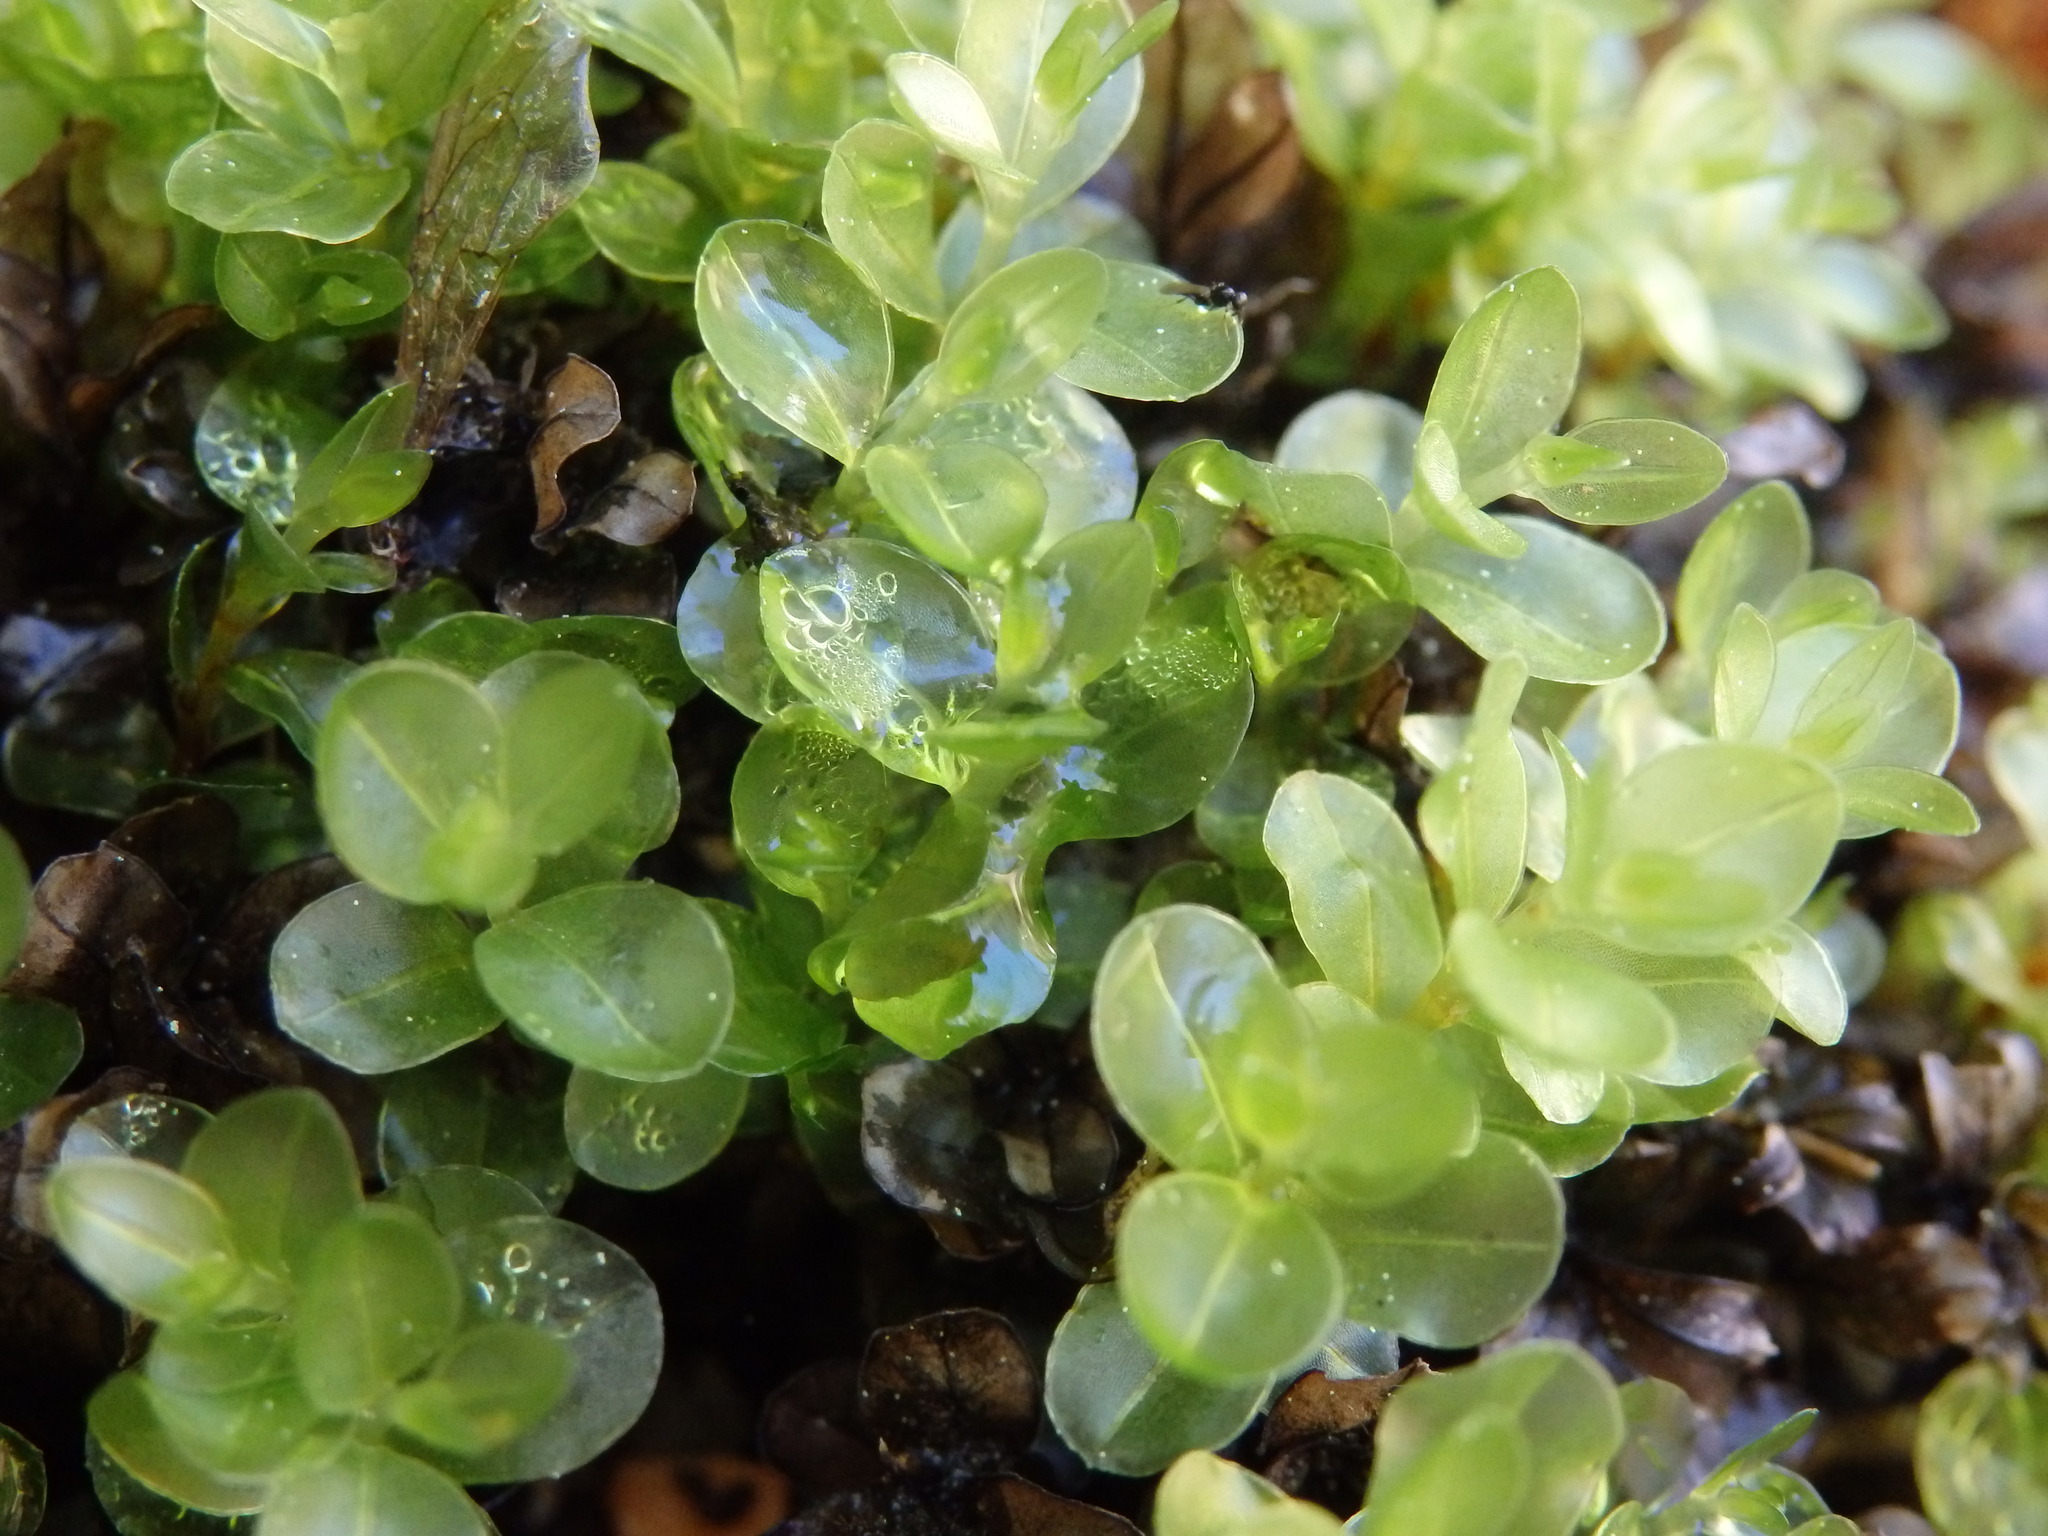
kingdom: Plantae
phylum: Bryophyta
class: Bryopsida
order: Bryales
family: Mniaceae
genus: Rhizomnium
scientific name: Rhizomnium punctatum
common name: Dotted leafy moss
